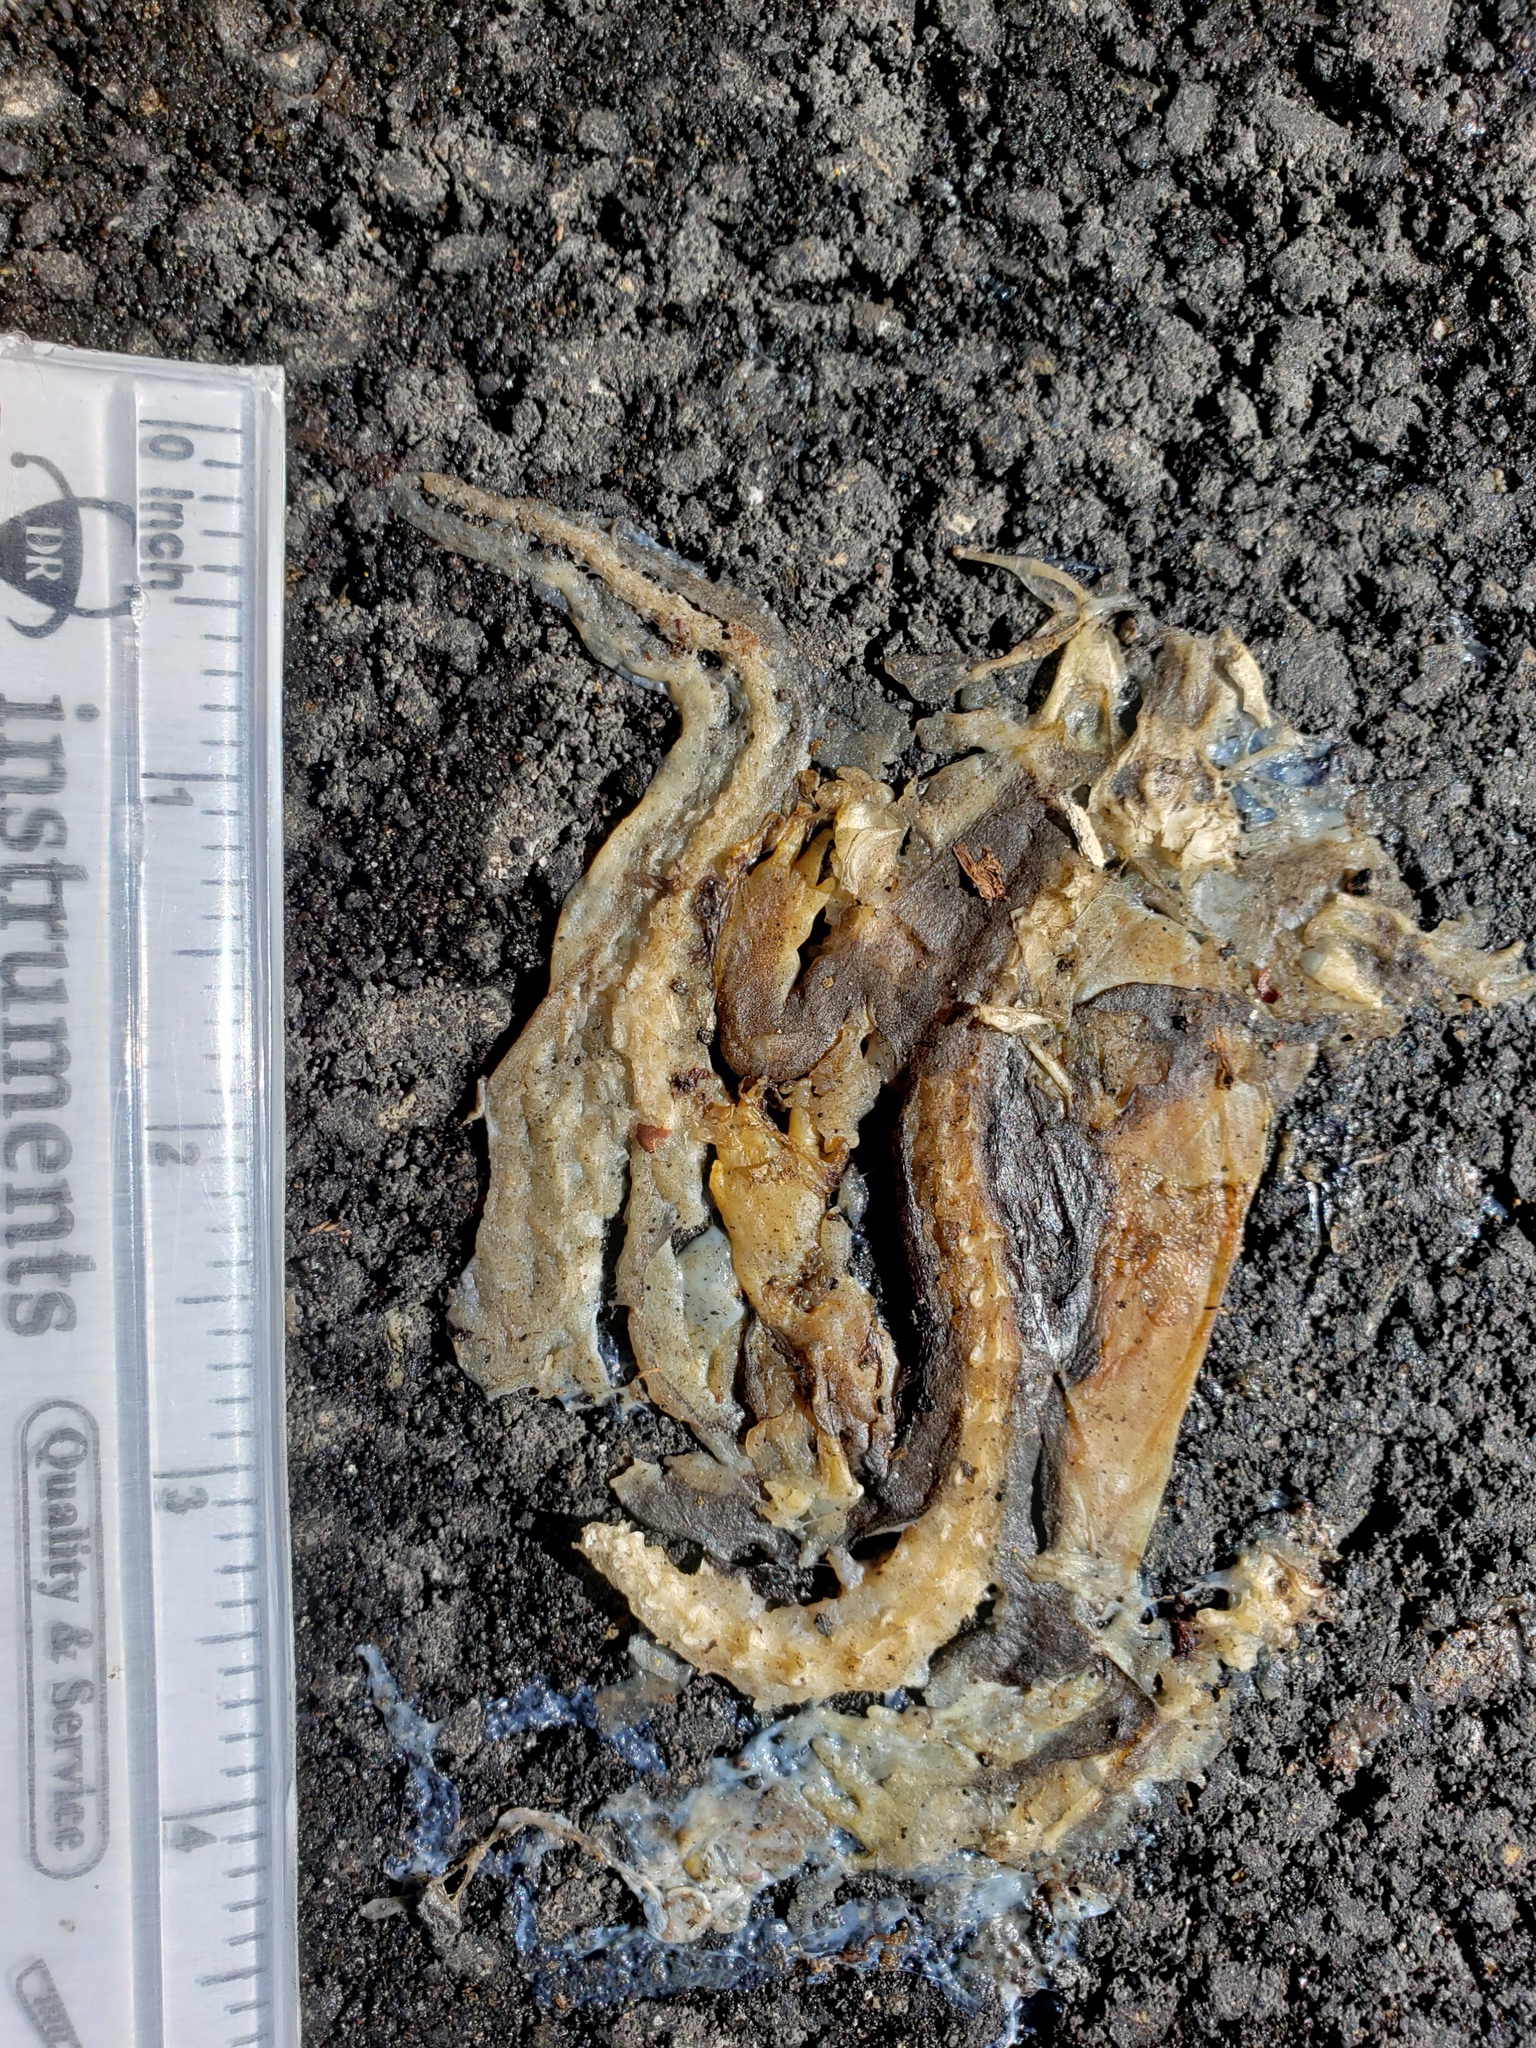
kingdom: Animalia
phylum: Chordata
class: Amphibia
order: Caudata
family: Salamandridae
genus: Taricha
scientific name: Taricha
